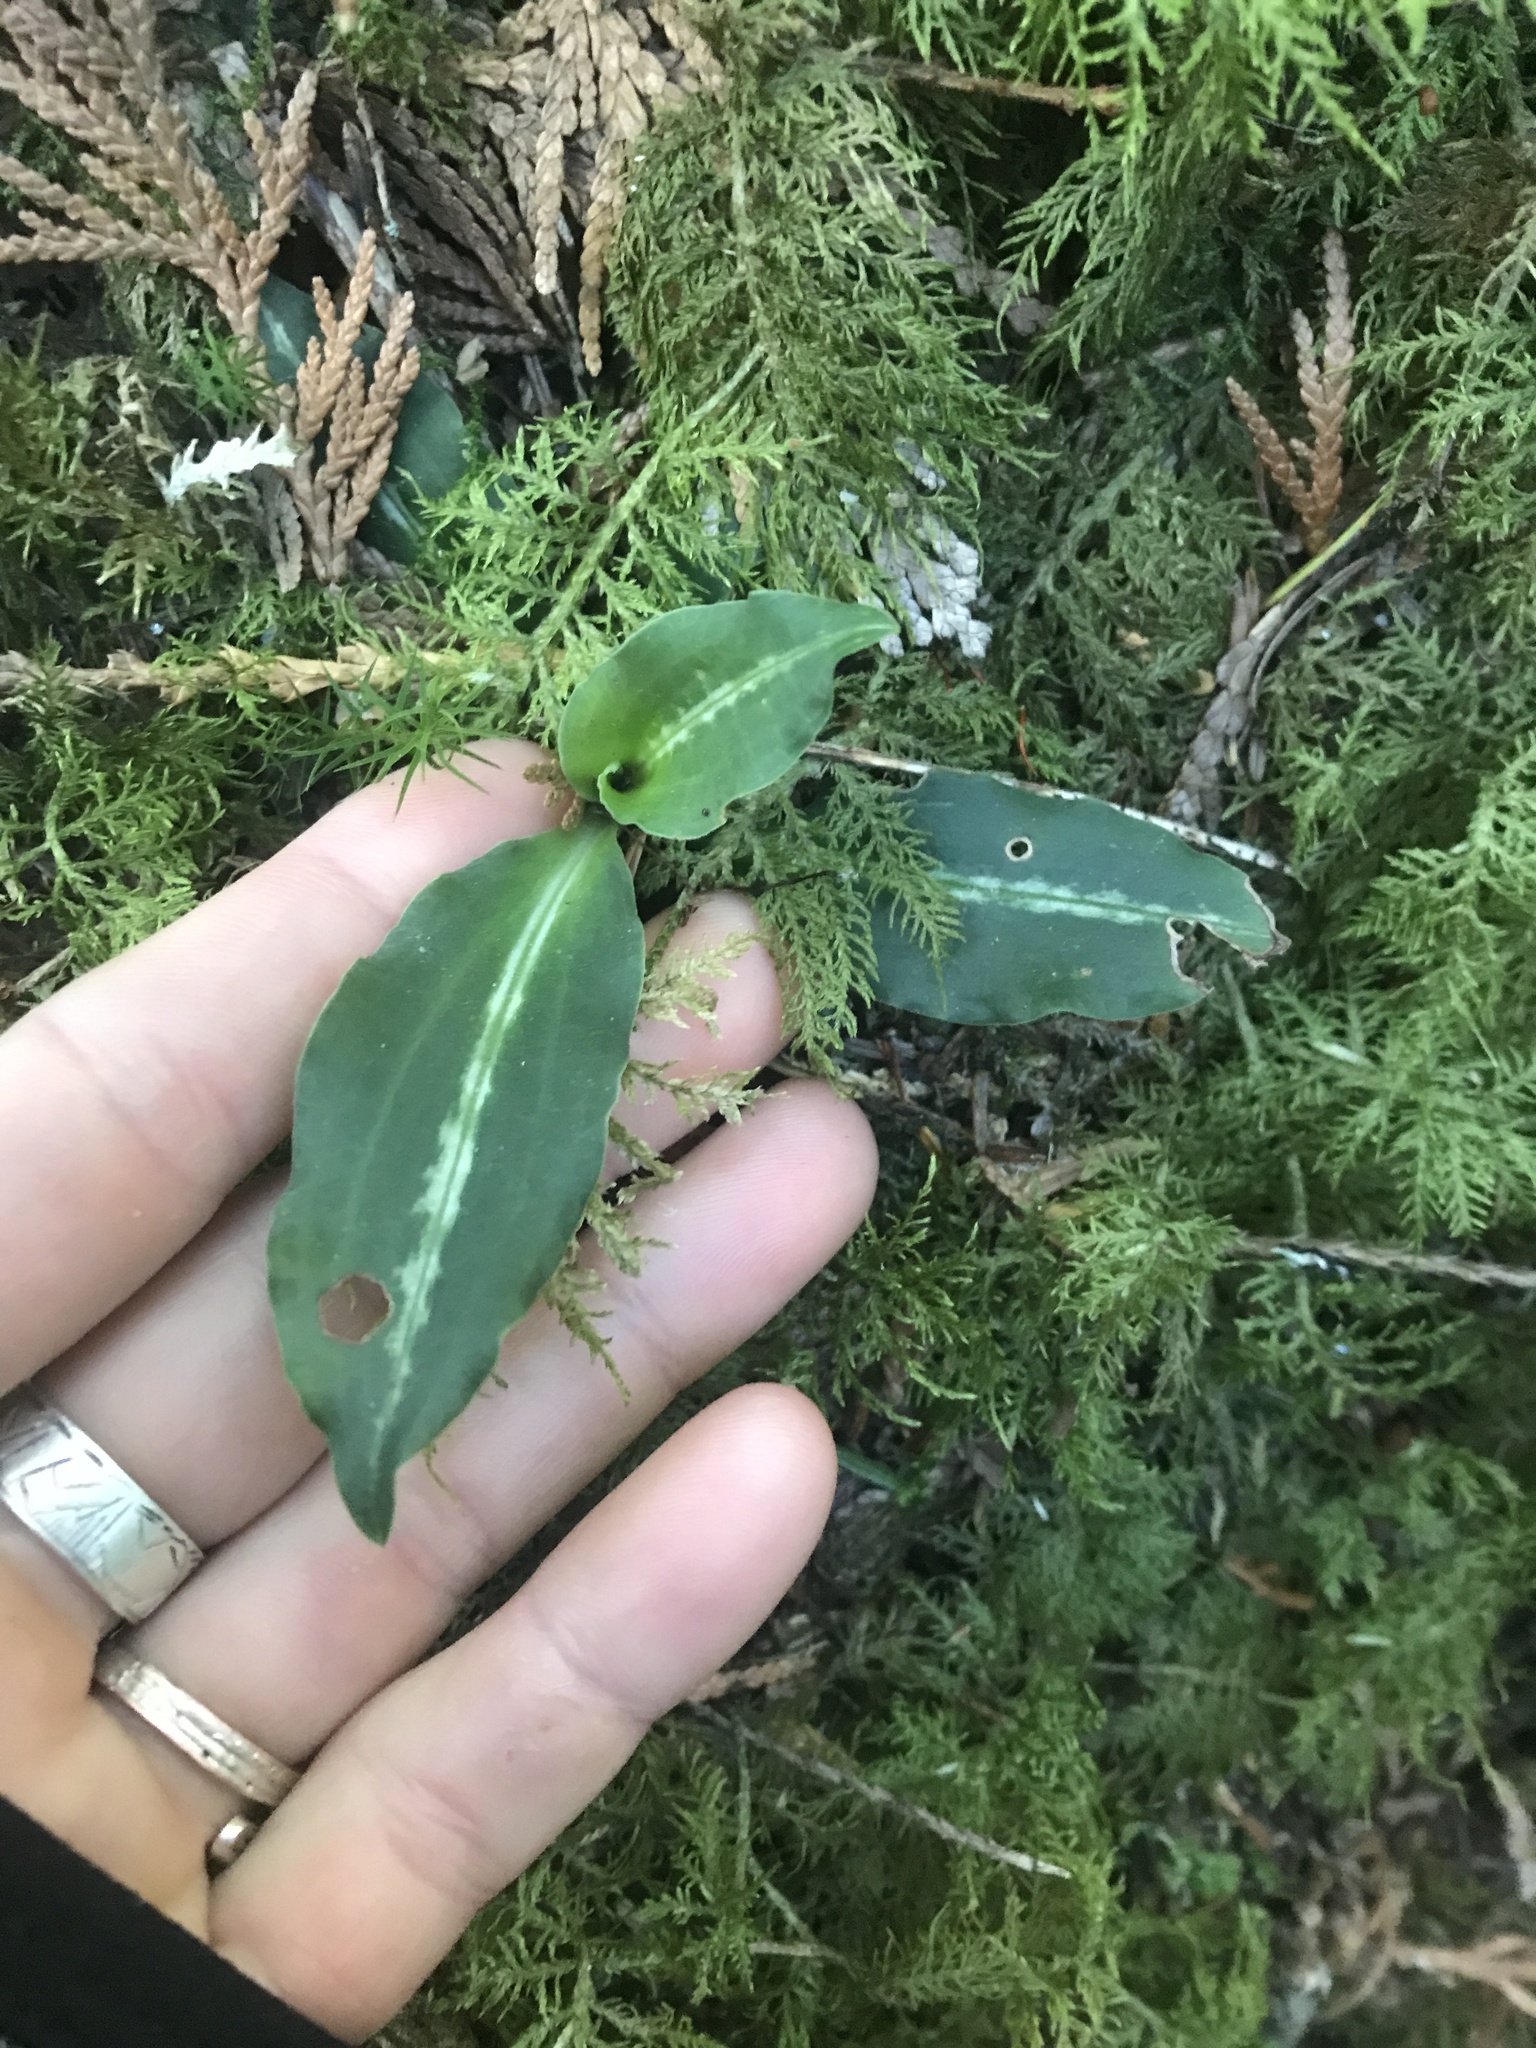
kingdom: Plantae
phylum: Tracheophyta
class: Liliopsida
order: Asparagales
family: Orchidaceae
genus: Goodyera
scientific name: Goodyera oblongifolia
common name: Giant rattlesnake-plantain
